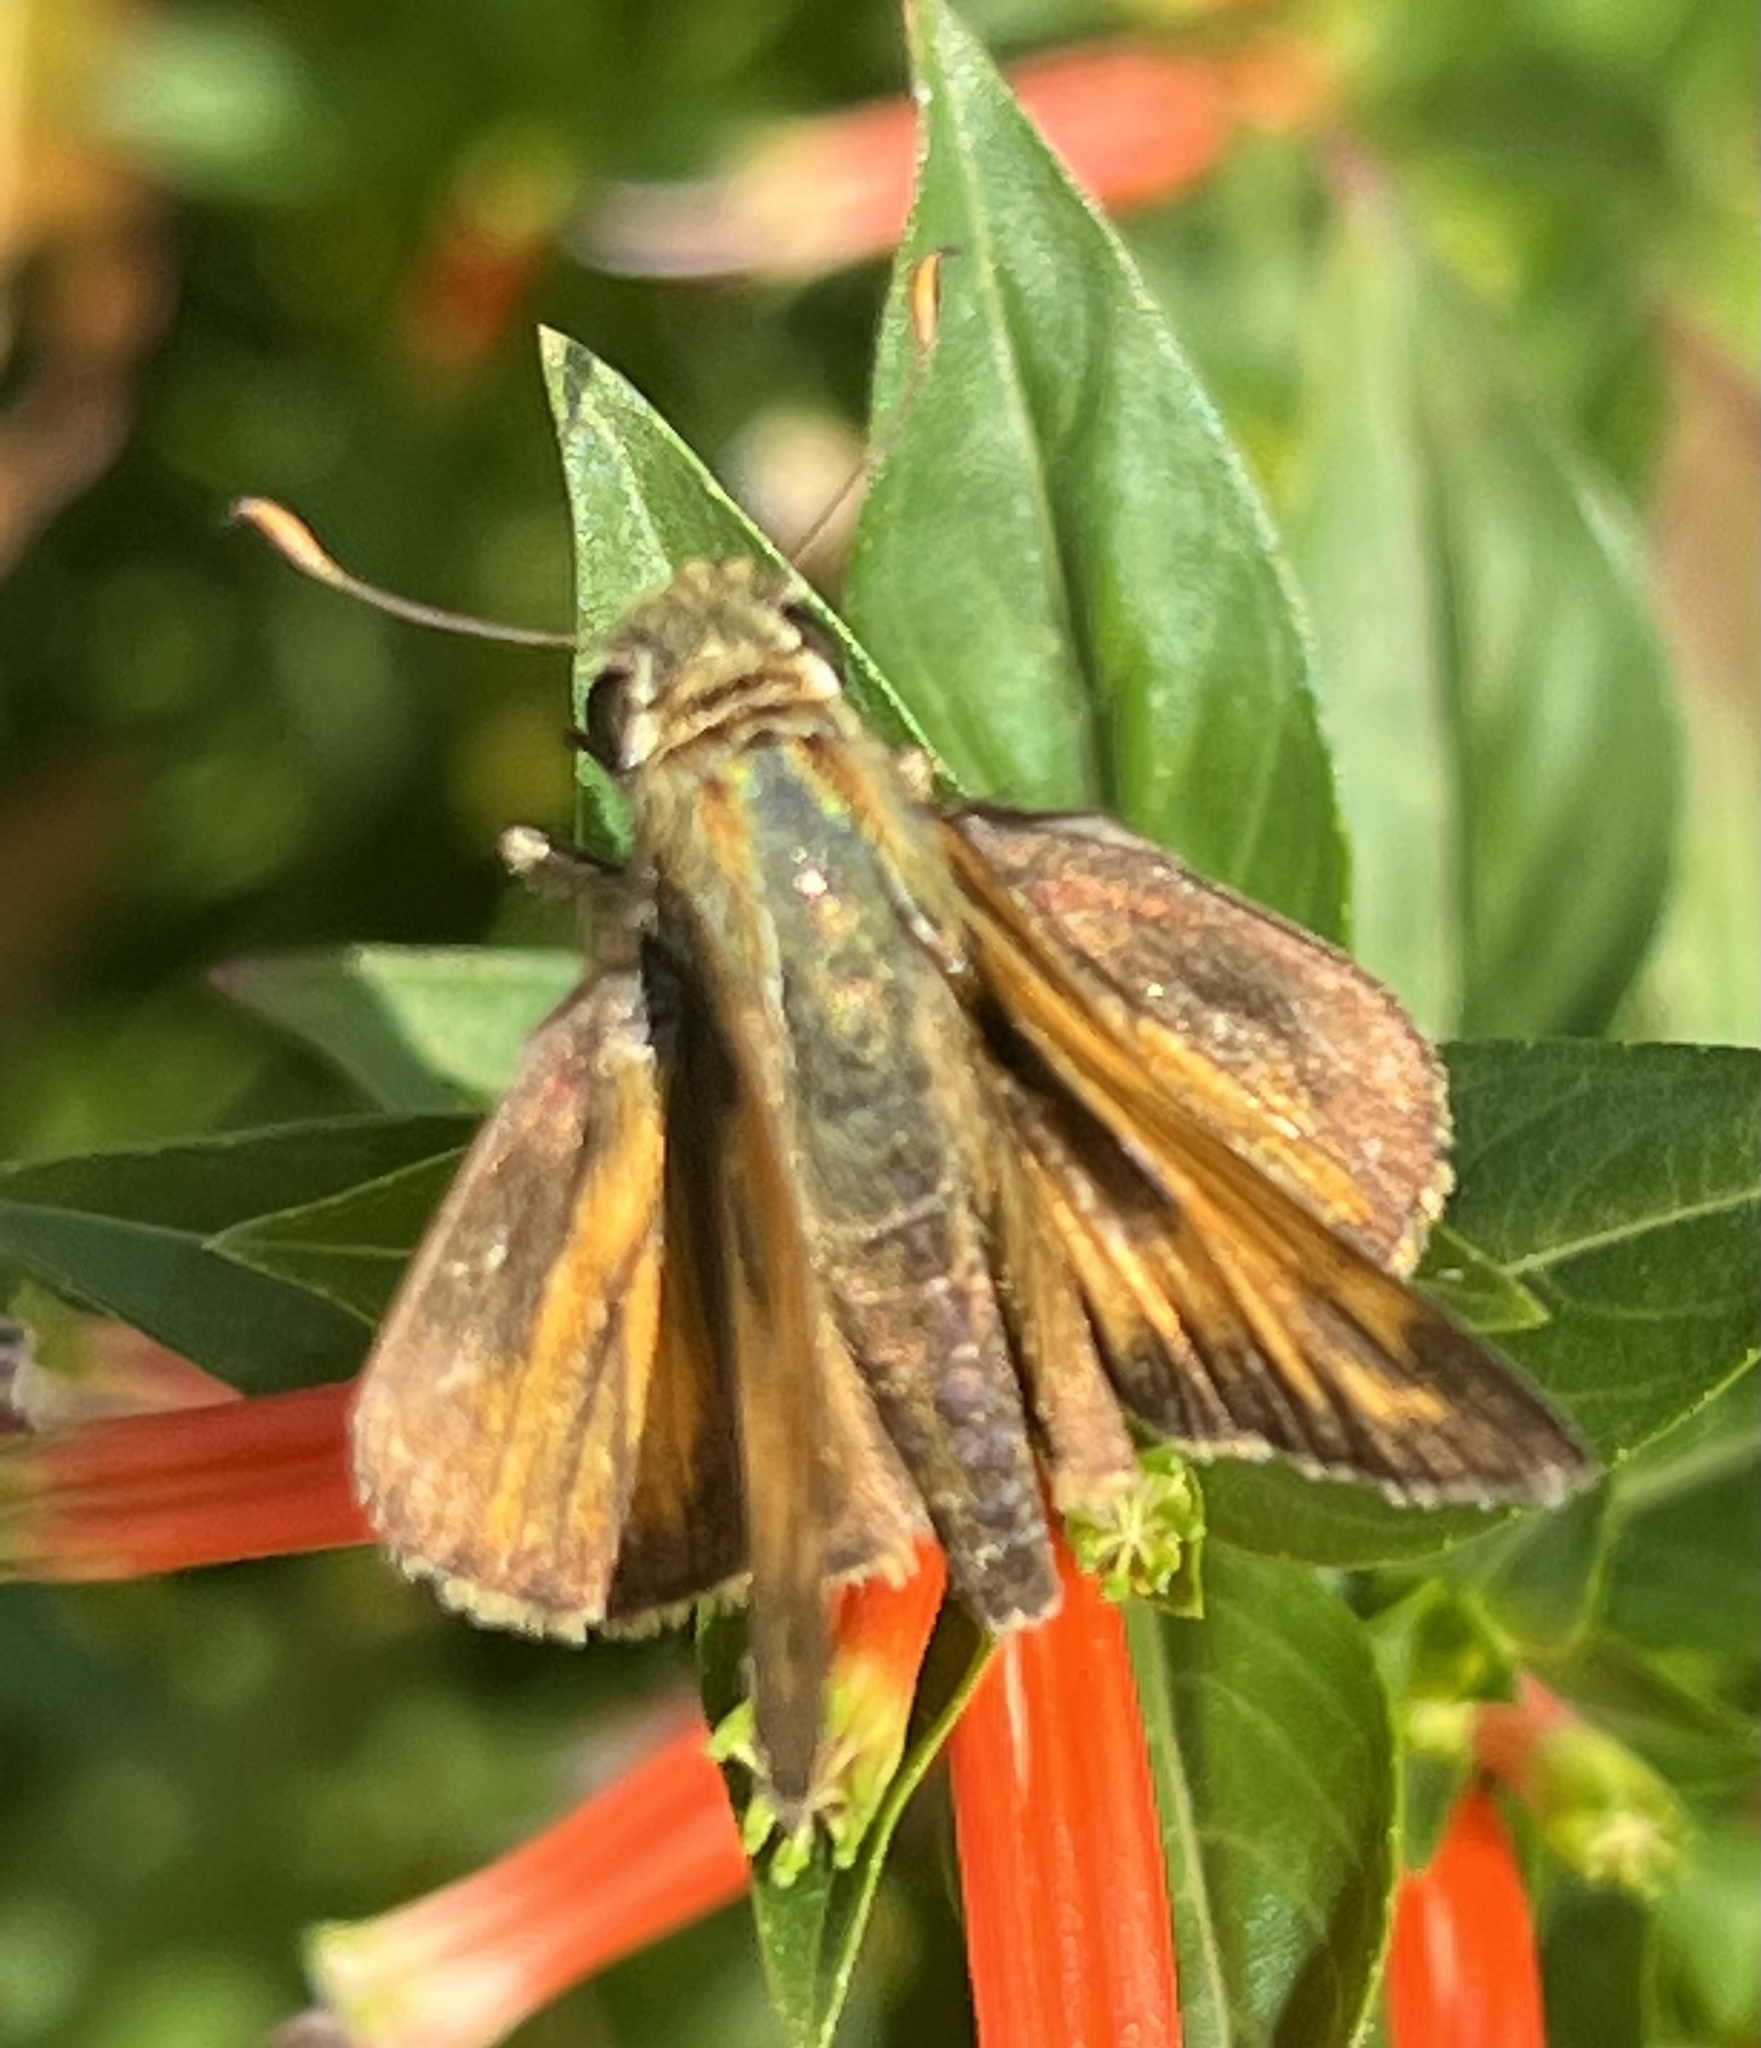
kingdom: Animalia
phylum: Arthropoda
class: Insecta
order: Lepidoptera
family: Hesperiidae
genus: Atalopedes
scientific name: Atalopedes
